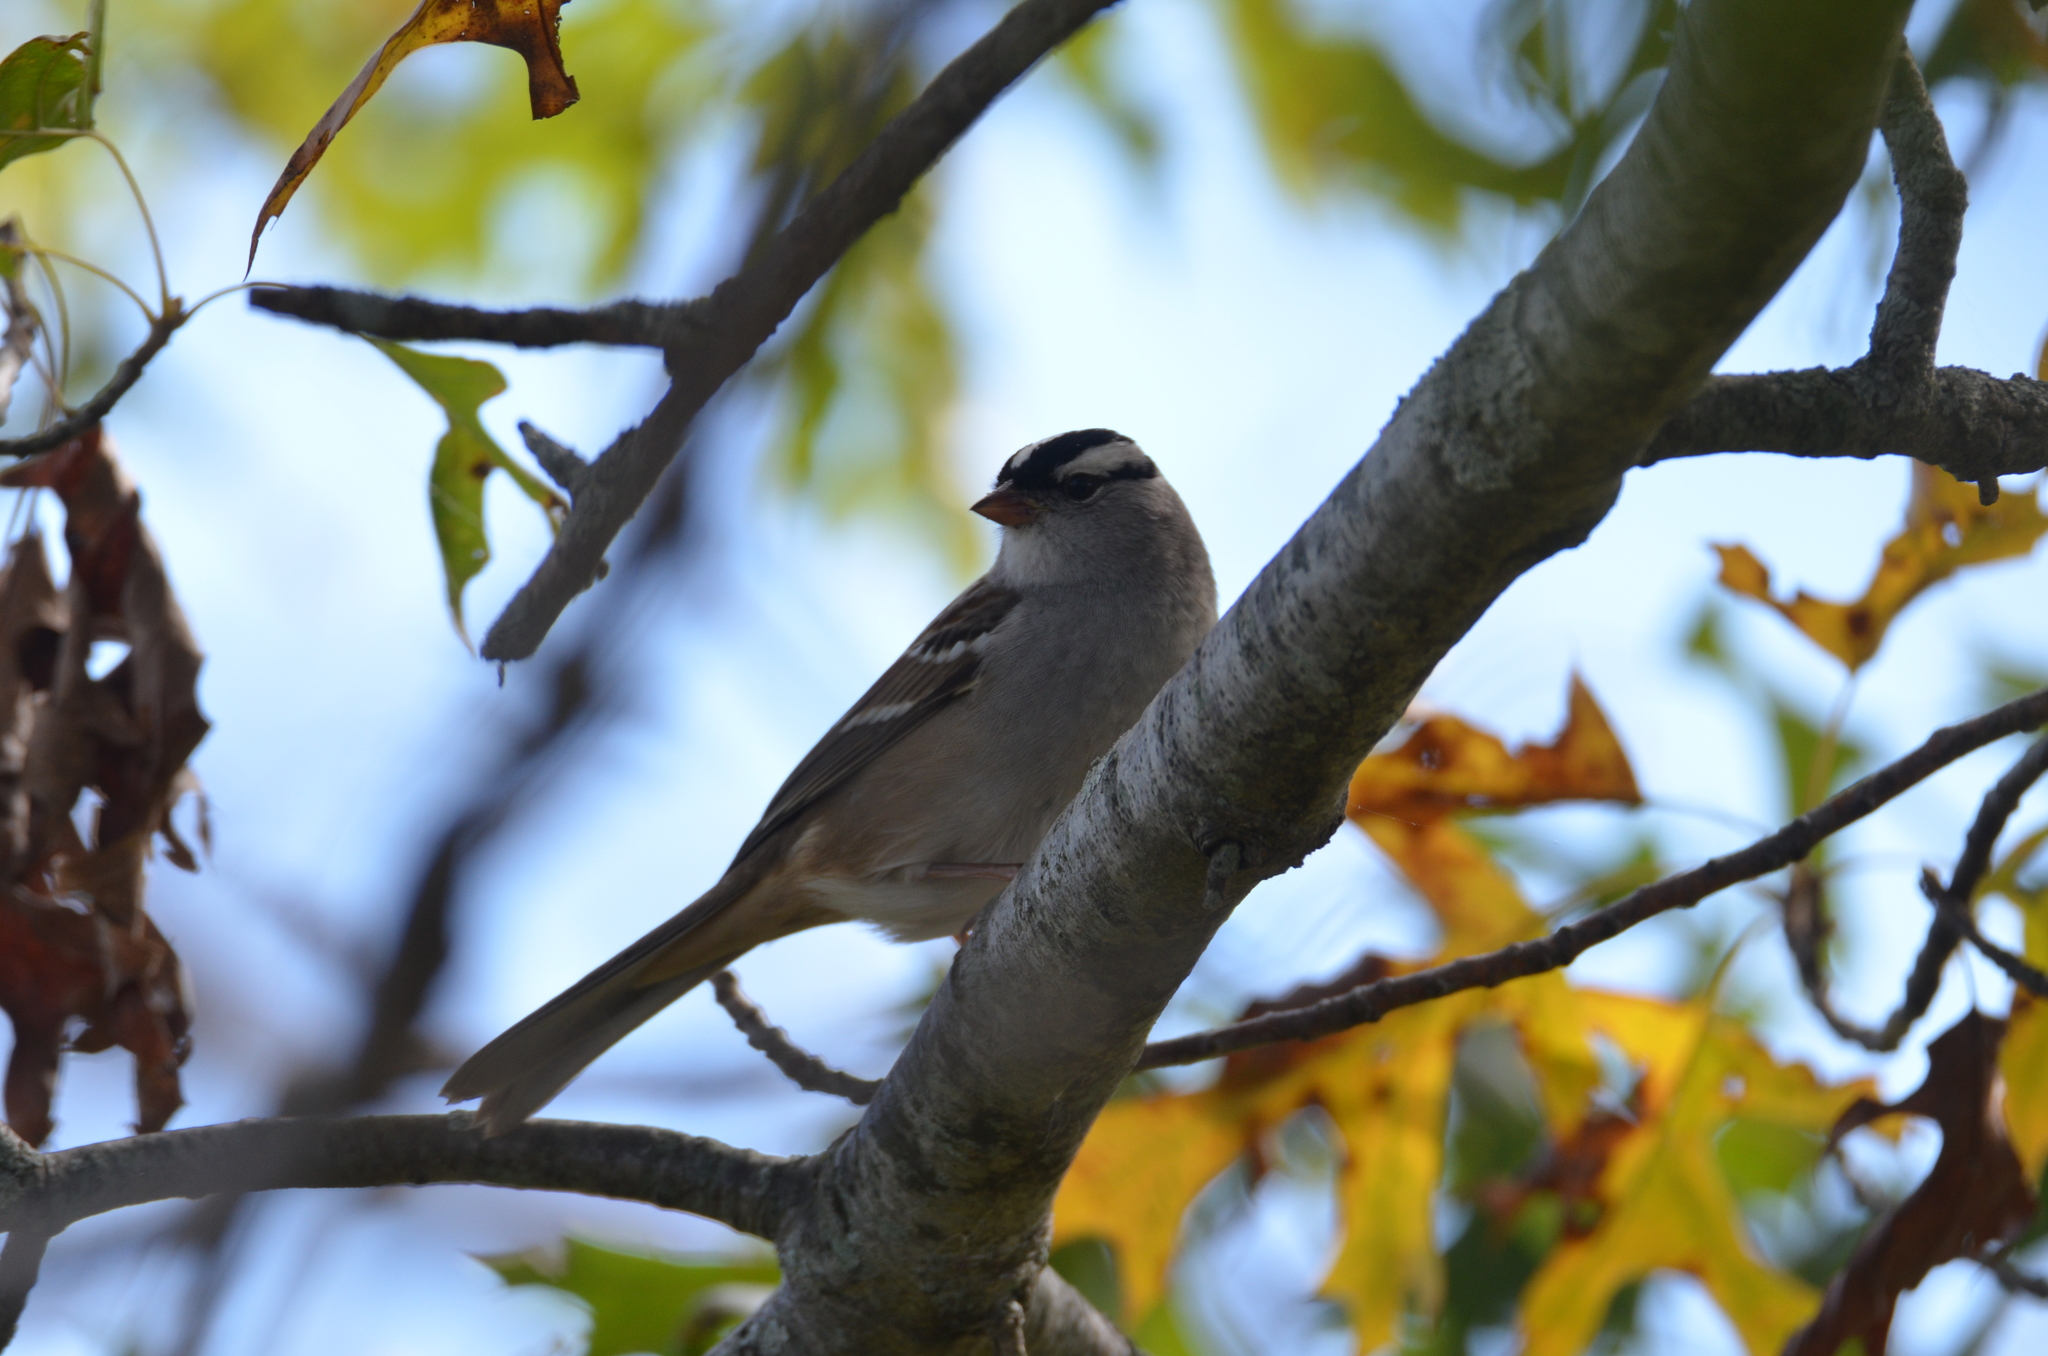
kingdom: Animalia
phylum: Chordata
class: Aves
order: Passeriformes
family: Passerellidae
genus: Zonotrichia
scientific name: Zonotrichia leucophrys
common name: White-crowned sparrow
